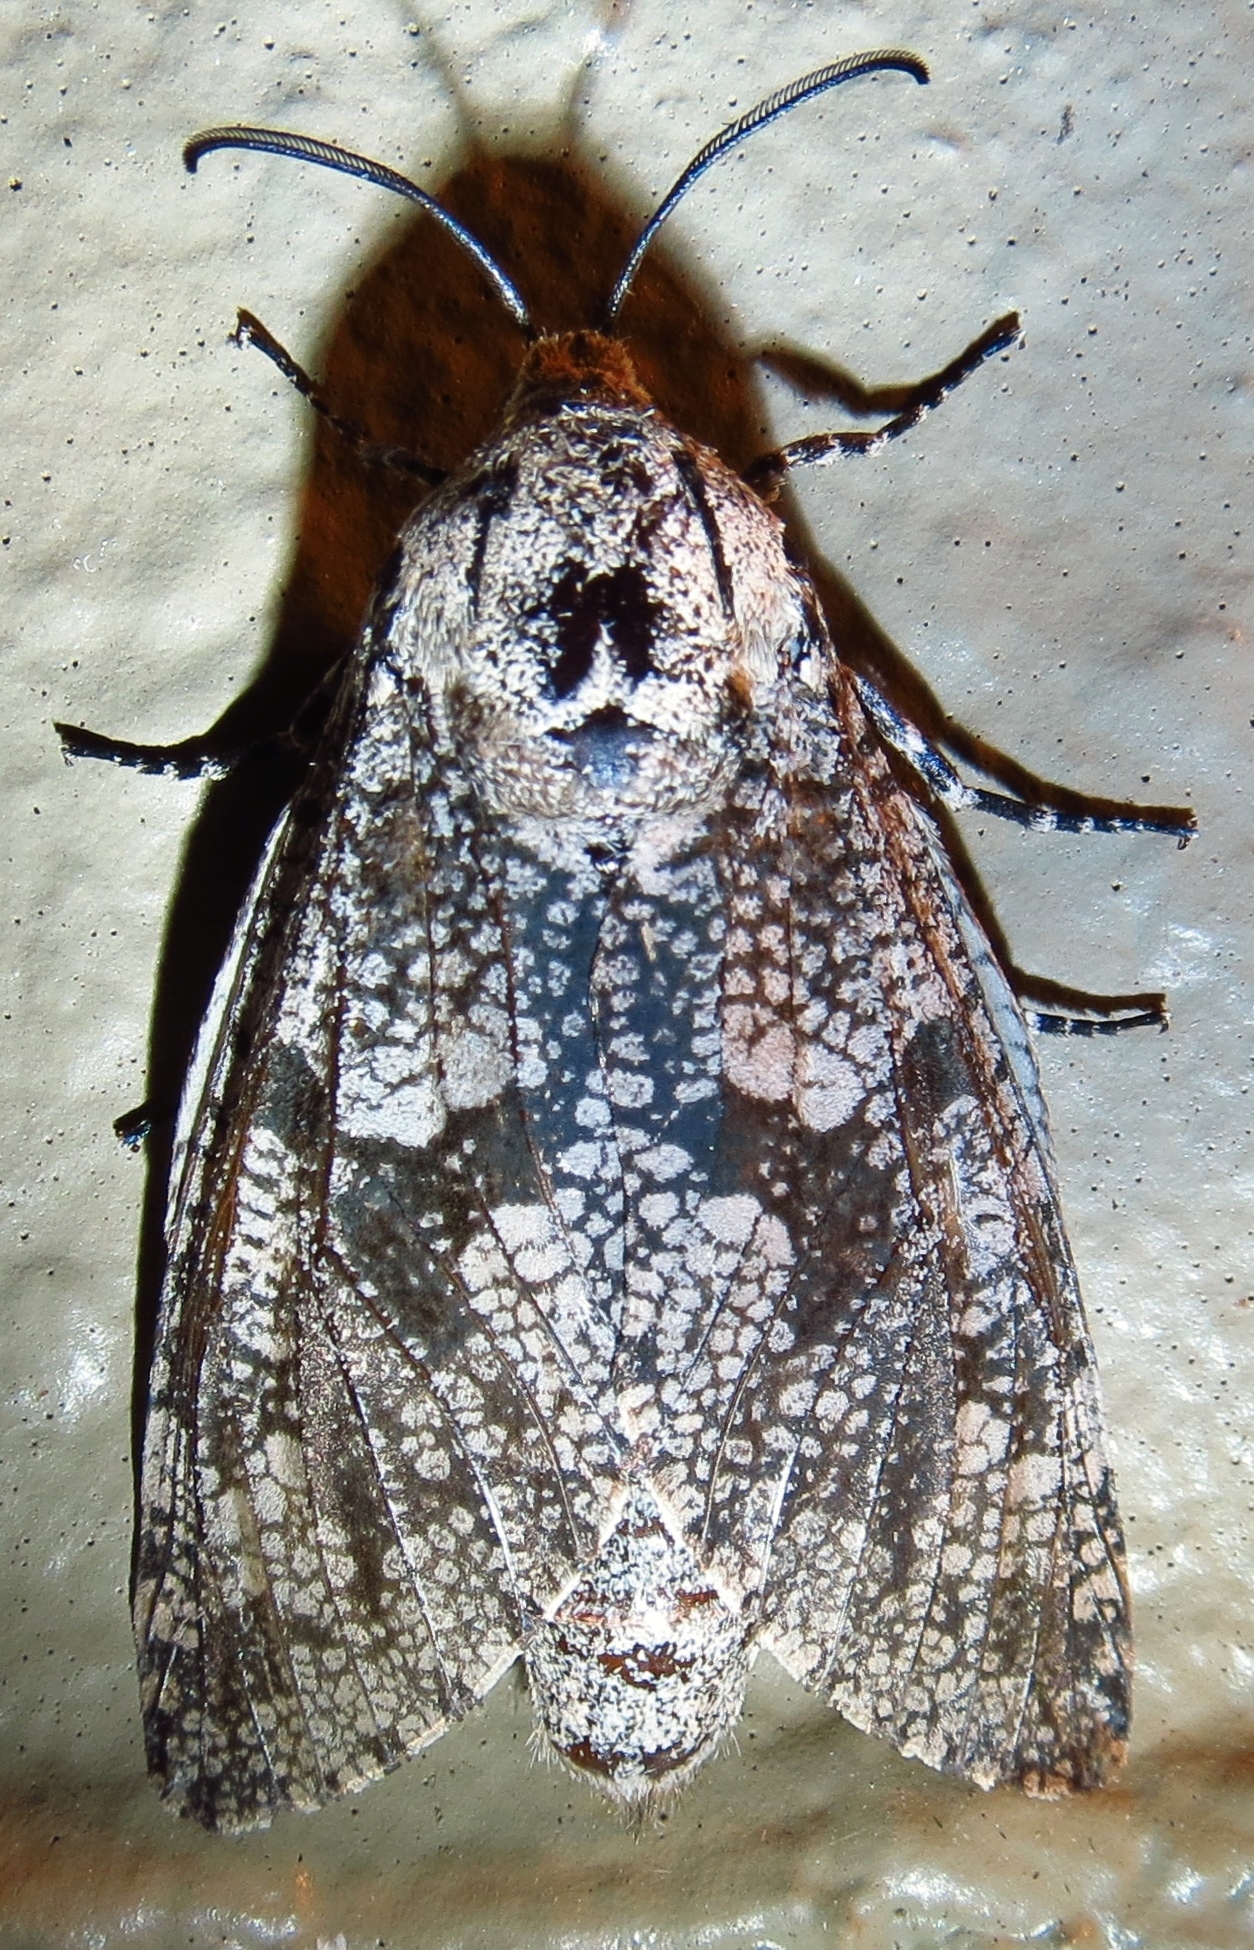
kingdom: Animalia
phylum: Arthropoda
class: Insecta
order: Lepidoptera
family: Cossidae
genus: Prionoxystus
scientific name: Prionoxystus robiniae
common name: Carpenterworm
